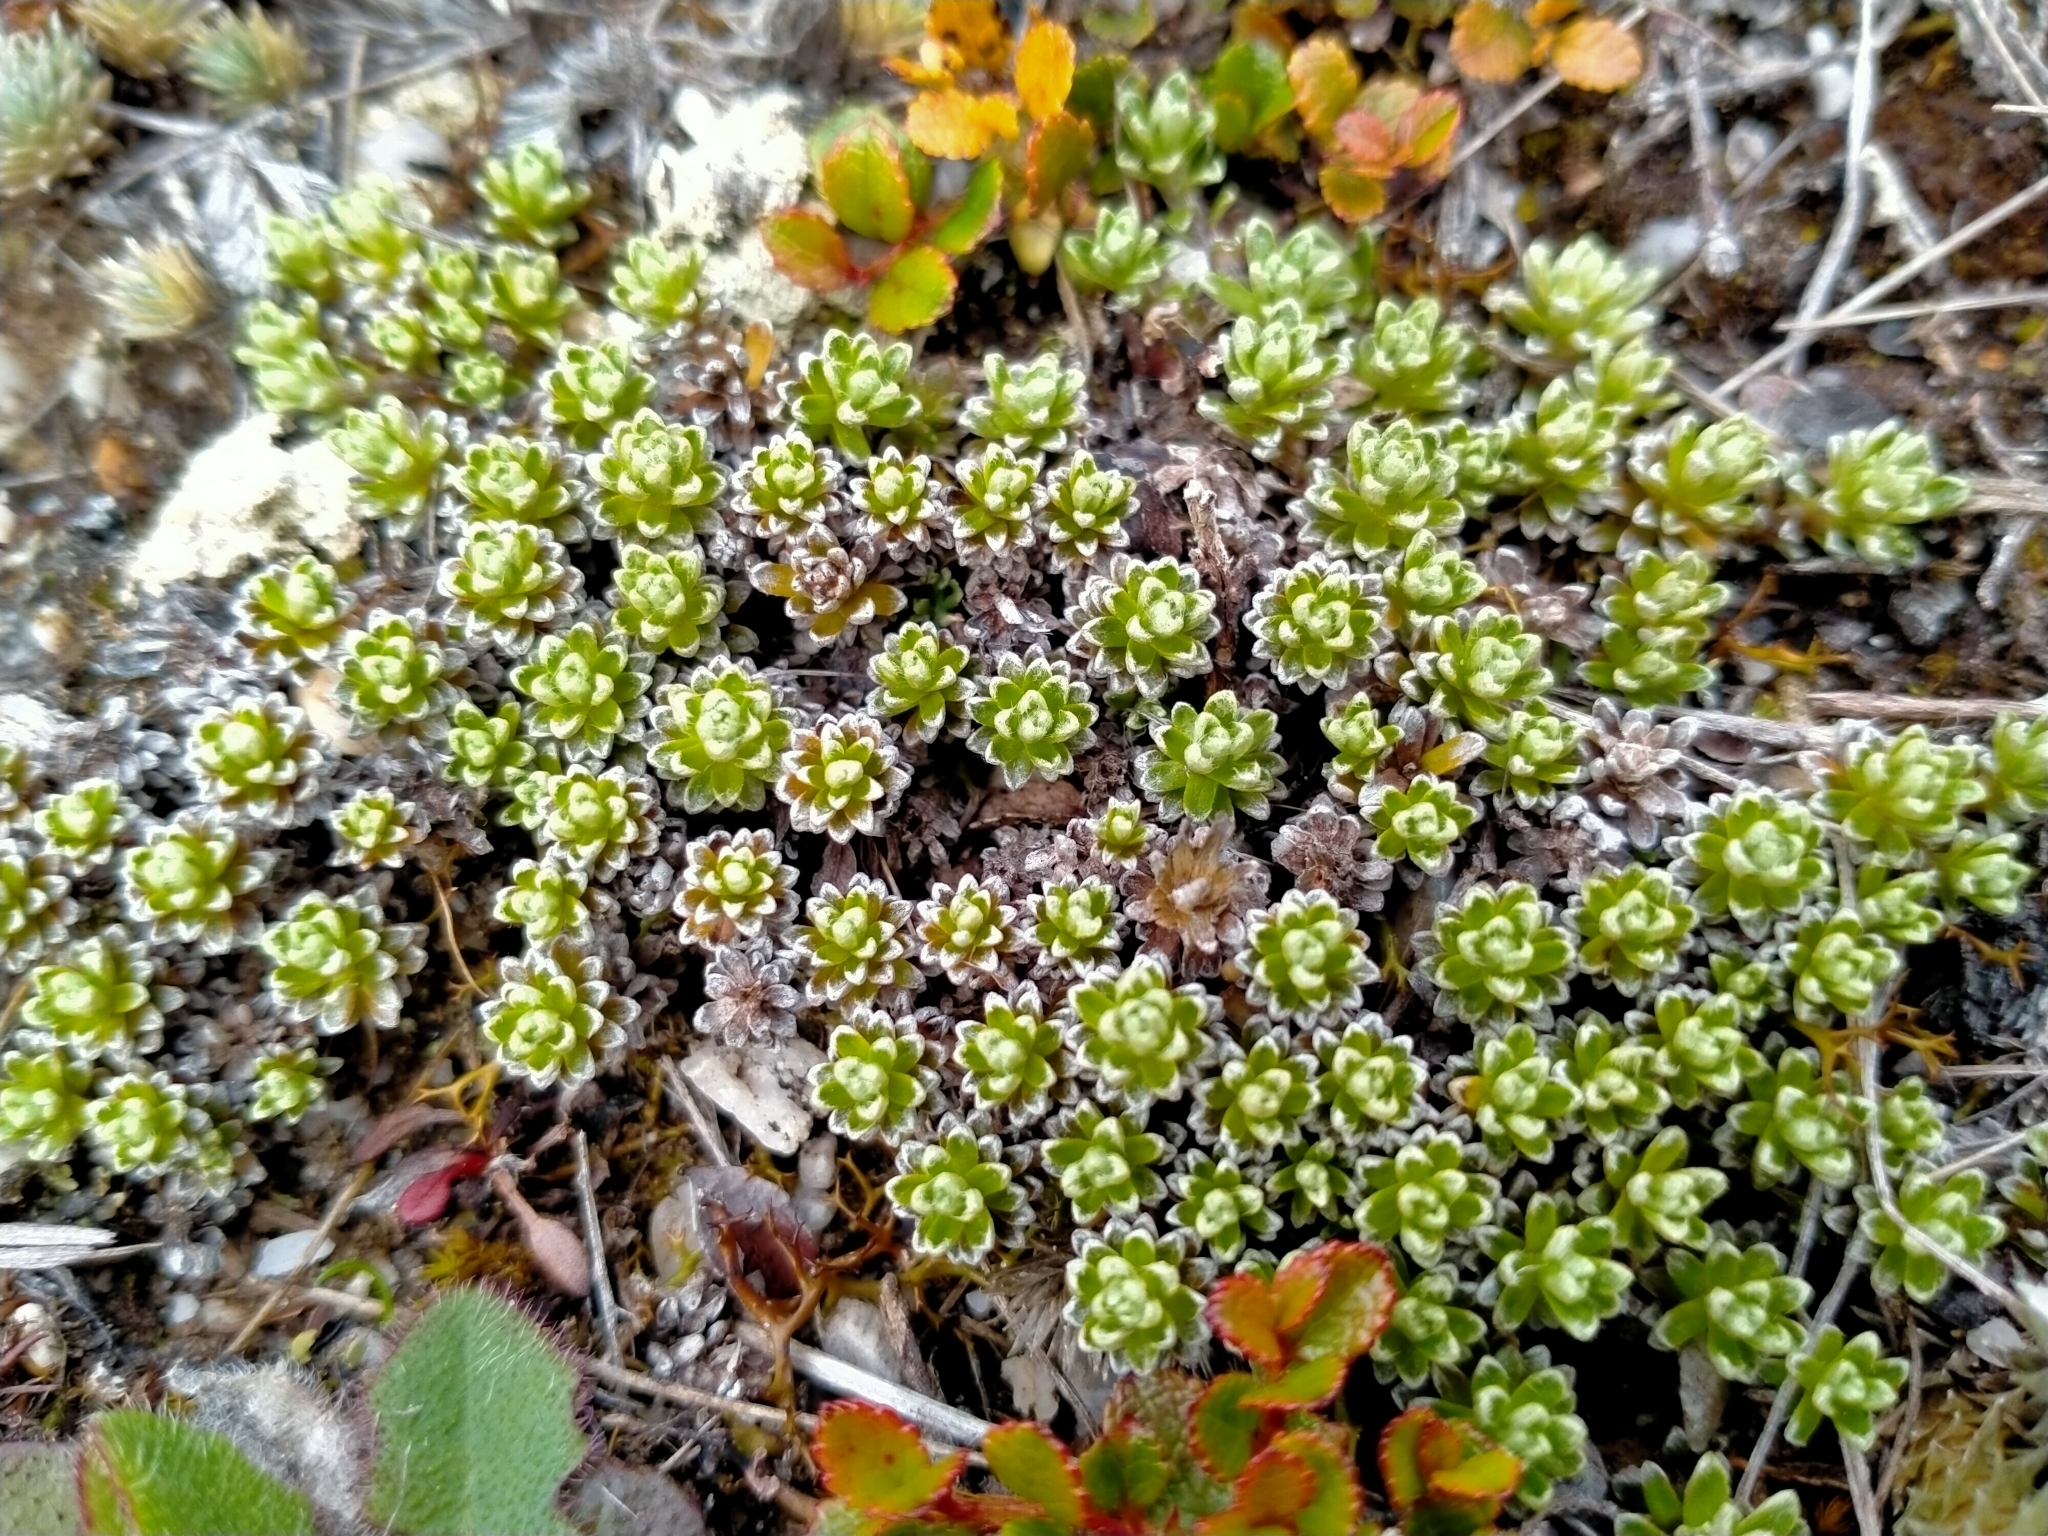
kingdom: Plantae
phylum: Tracheophyta
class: Magnoliopsida
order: Asterales
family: Asteraceae
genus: Raoulia
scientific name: Raoulia subsericea
